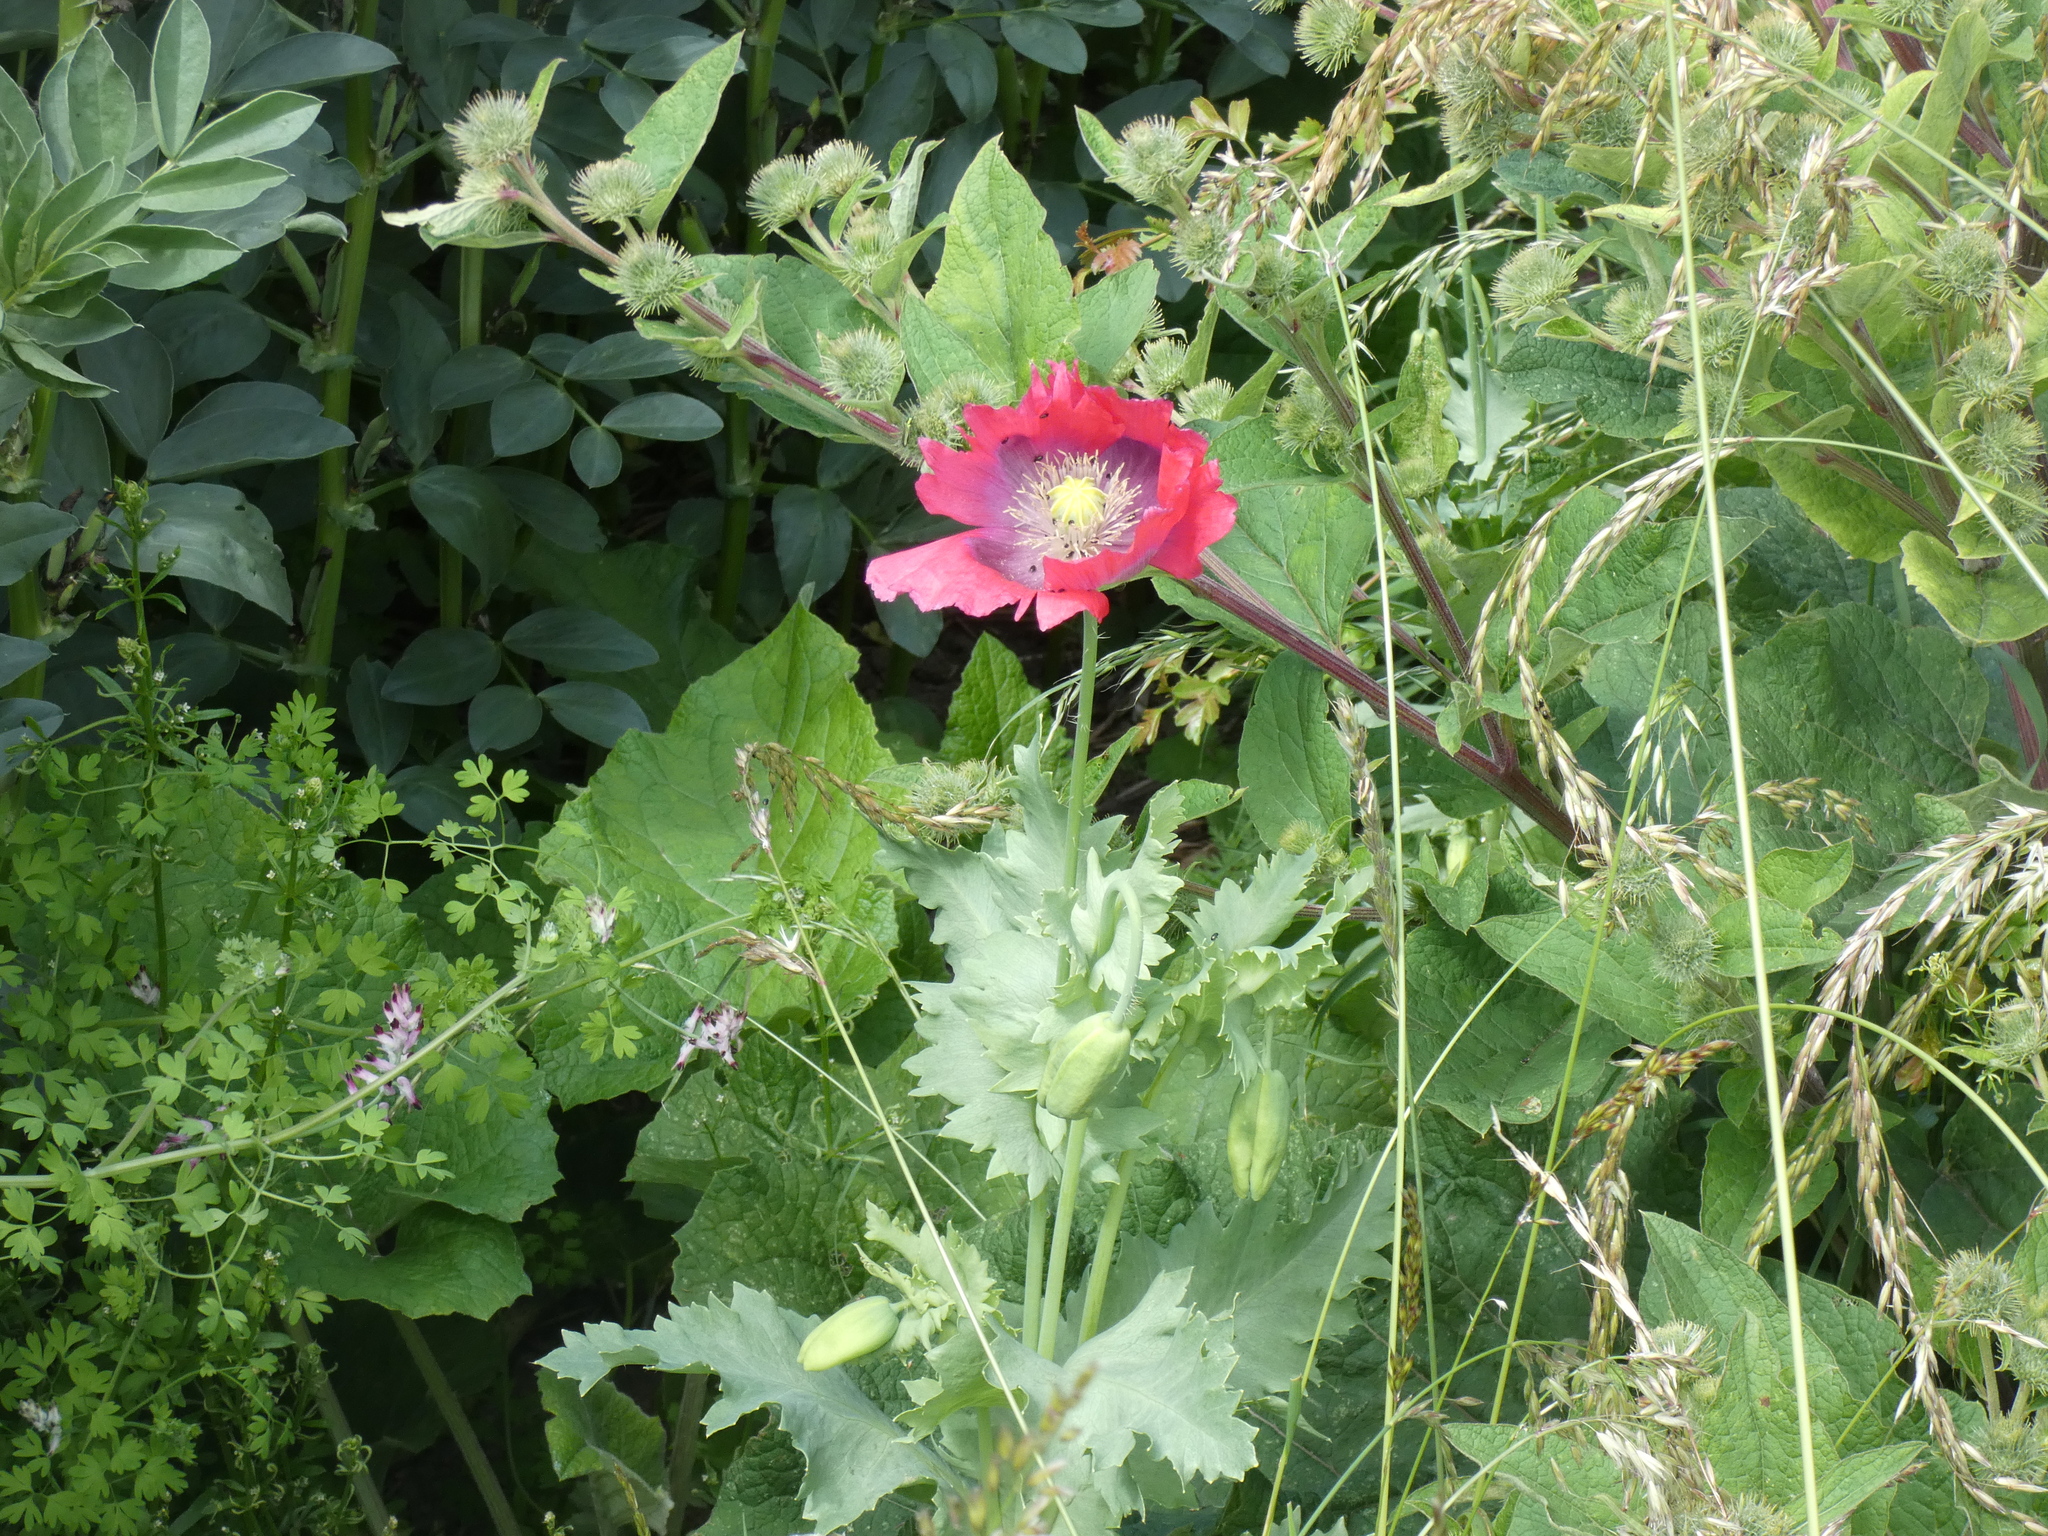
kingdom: Plantae
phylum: Tracheophyta
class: Magnoliopsida
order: Ranunculales
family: Papaveraceae
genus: Papaver
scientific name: Papaver somniferum
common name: Opium poppy
